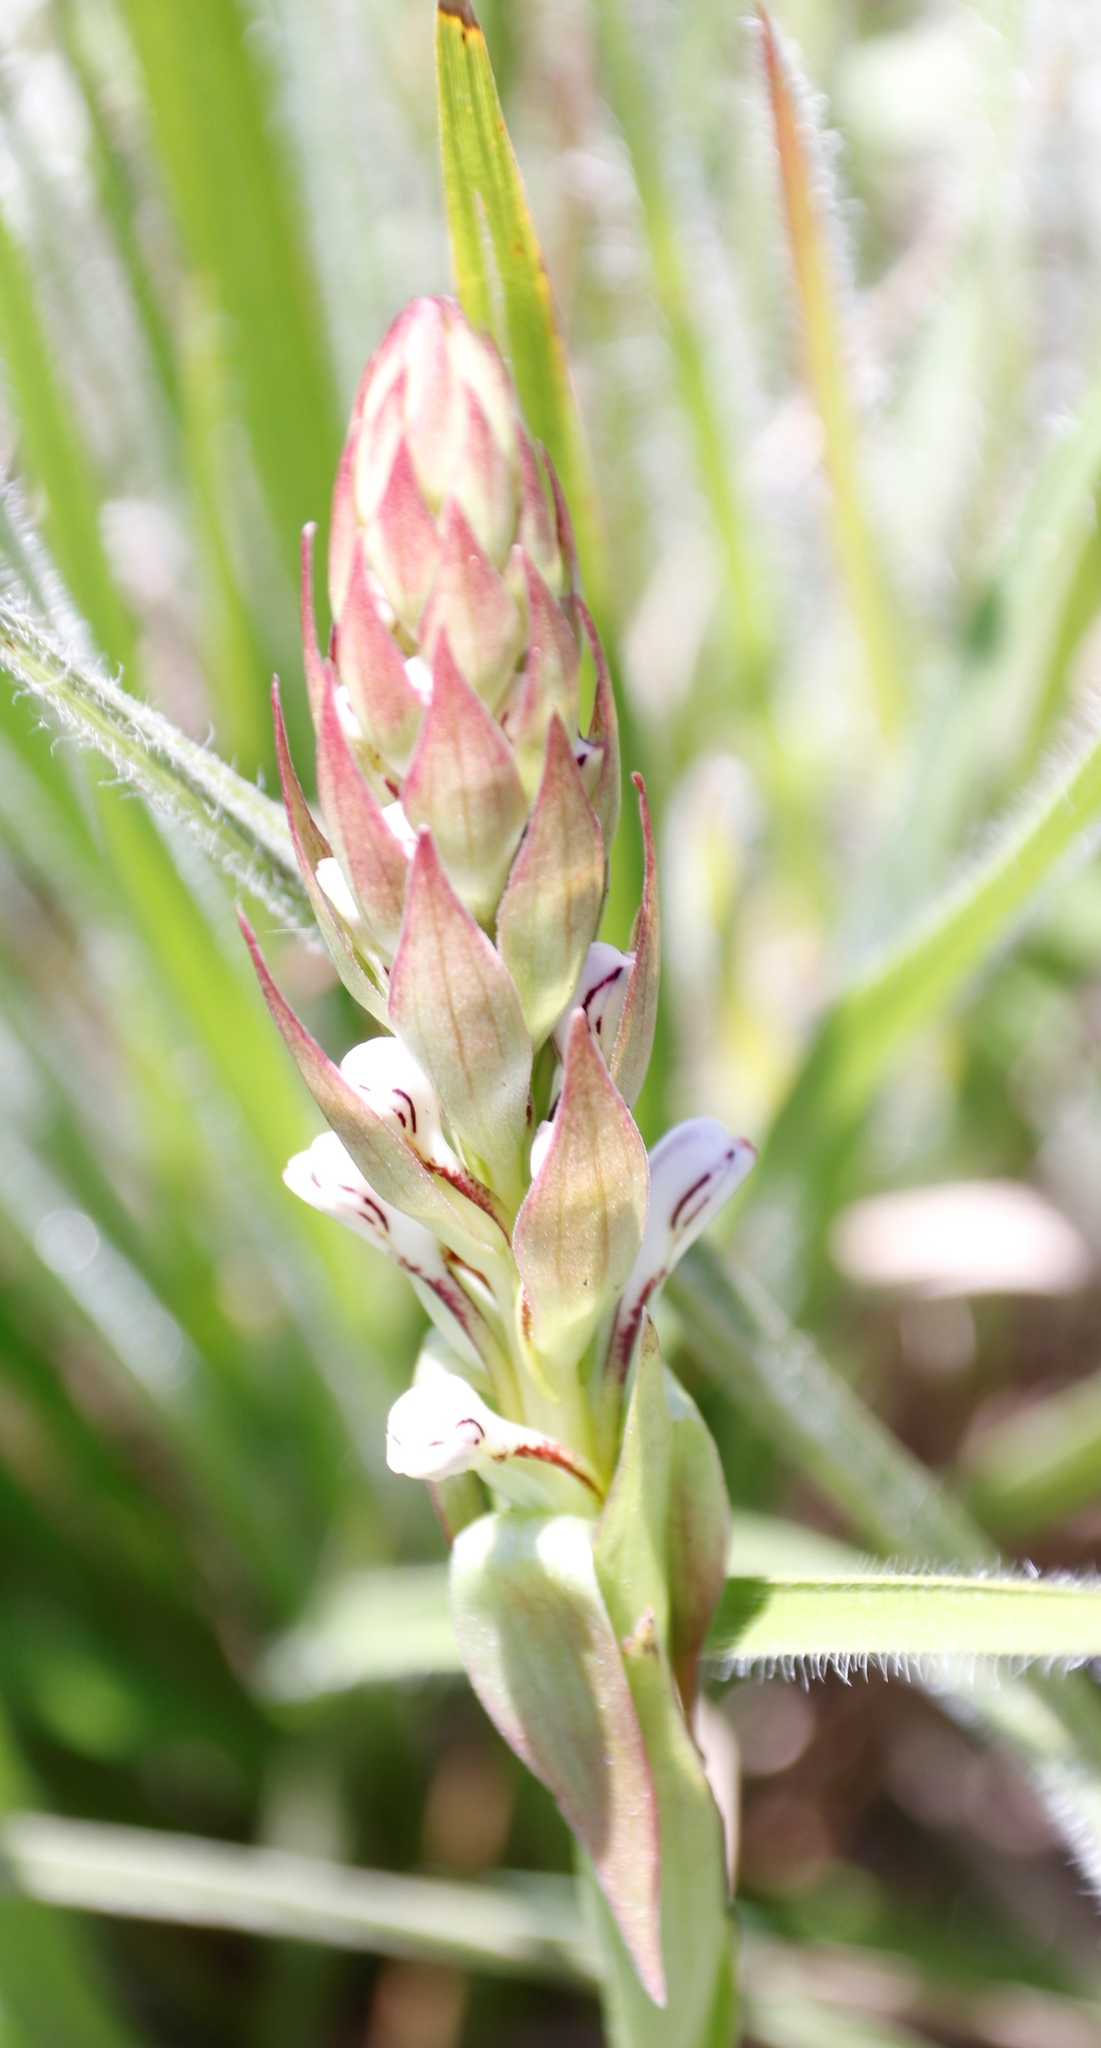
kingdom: Plantae
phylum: Tracheophyta
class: Liliopsida
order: Asparagales
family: Orchidaceae
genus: Satyrium
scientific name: Satyrium cristatum
